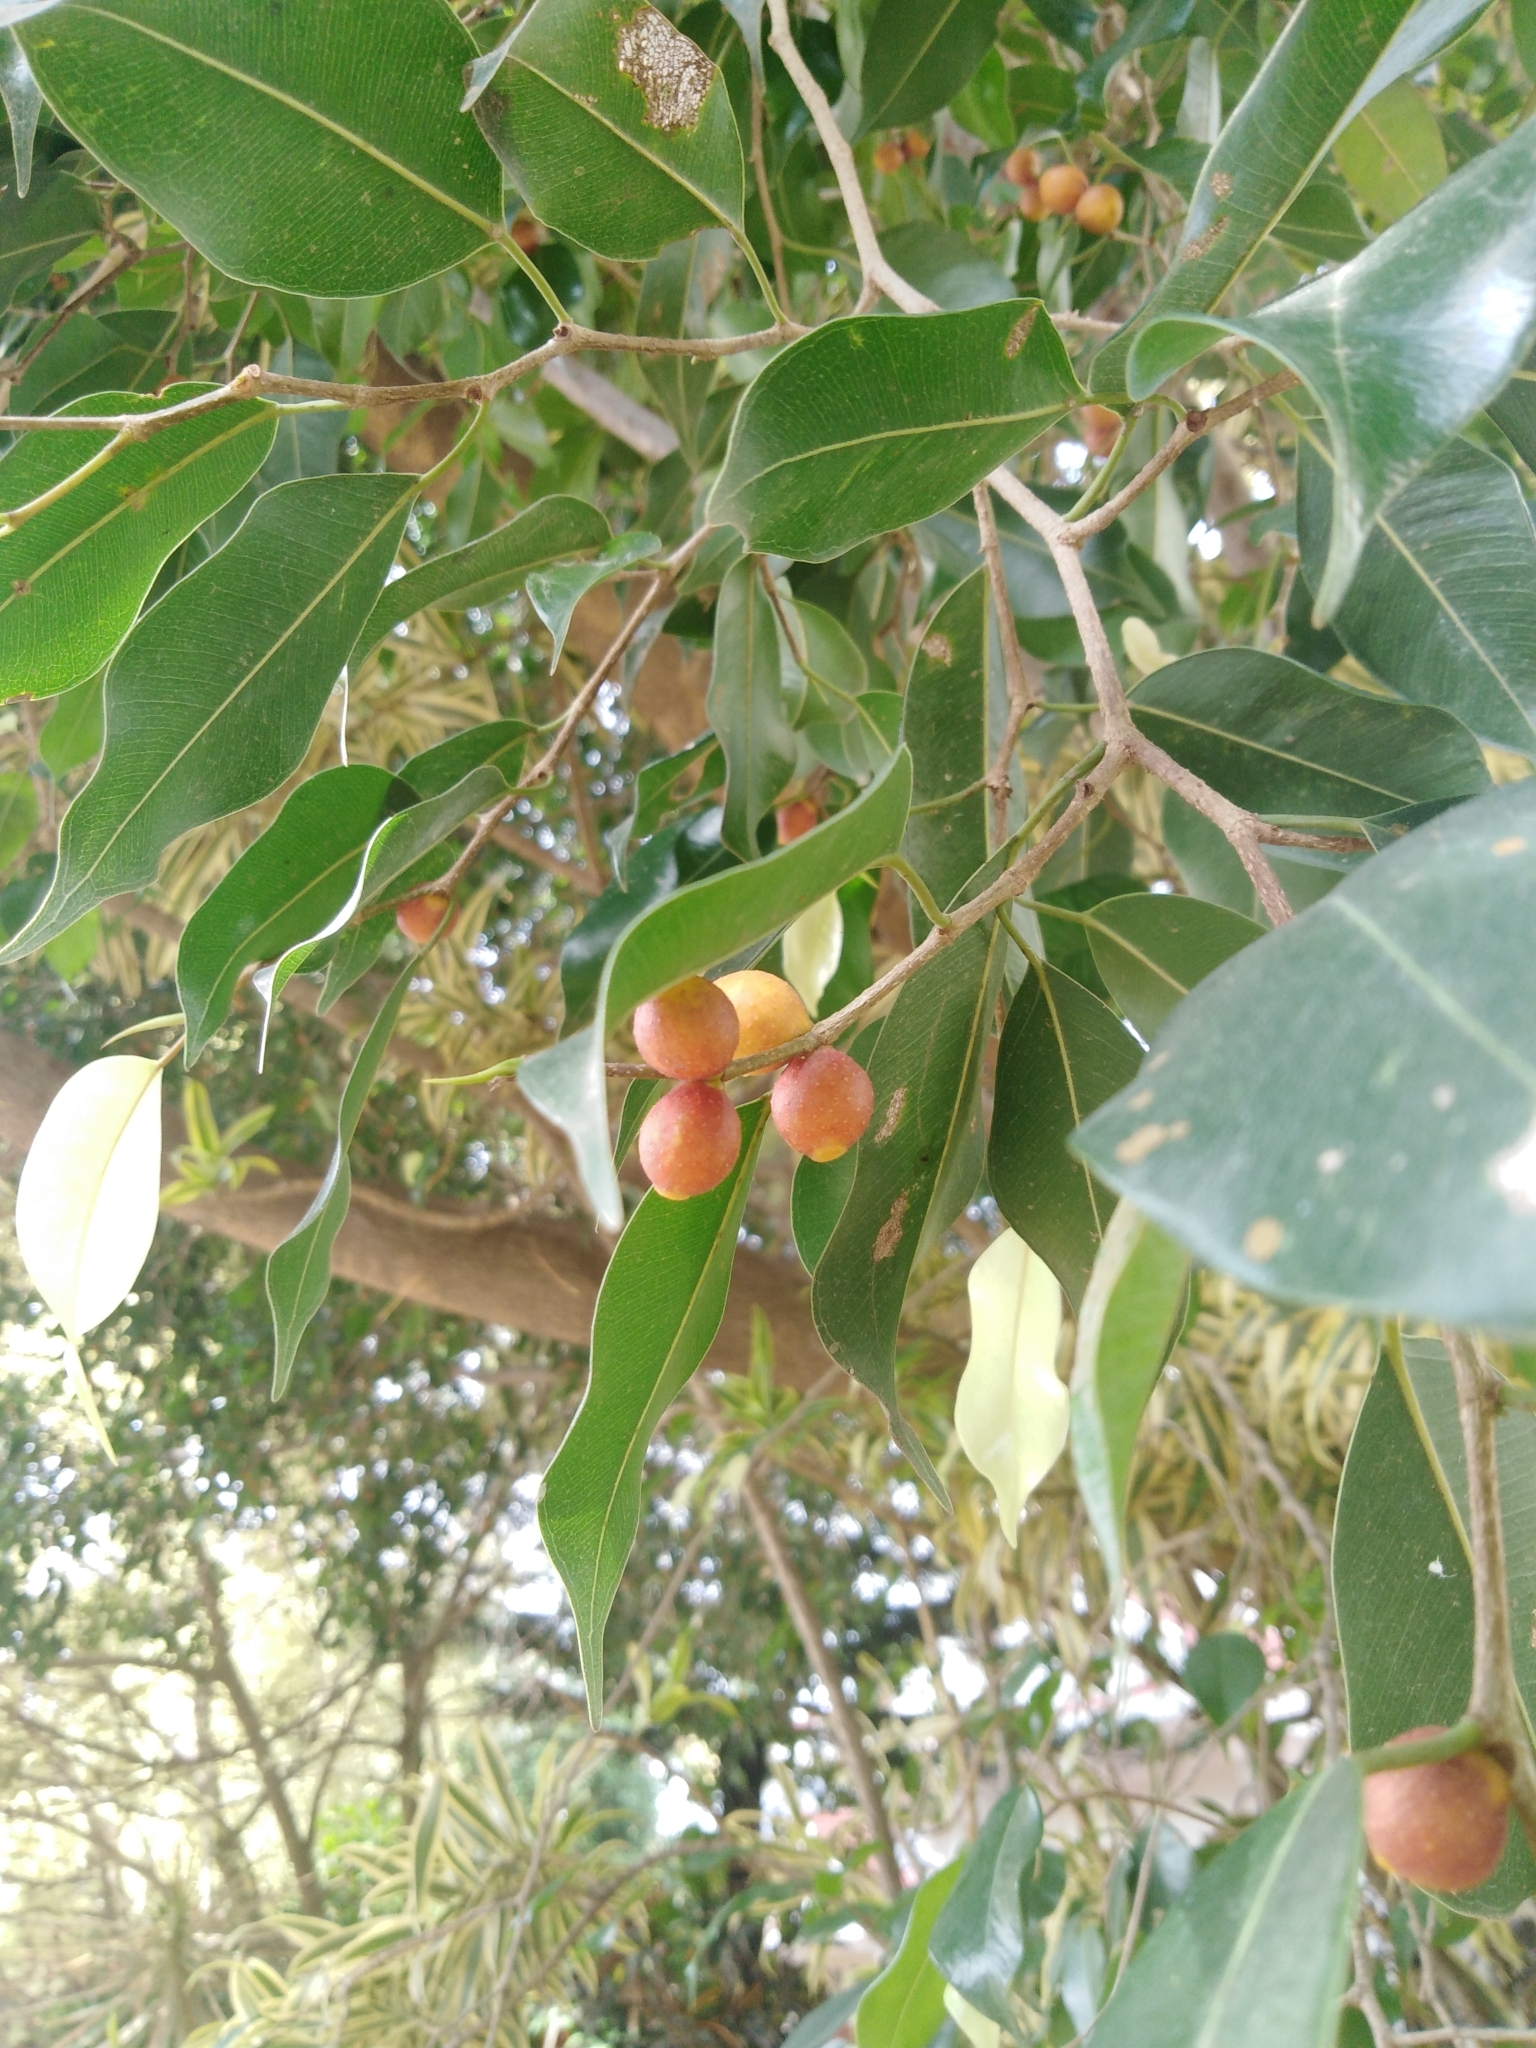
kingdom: Plantae
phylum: Tracheophyta
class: Magnoliopsida
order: Rosales
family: Moraceae
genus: Ficus
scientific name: Ficus benjamina
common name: Weeping fig
